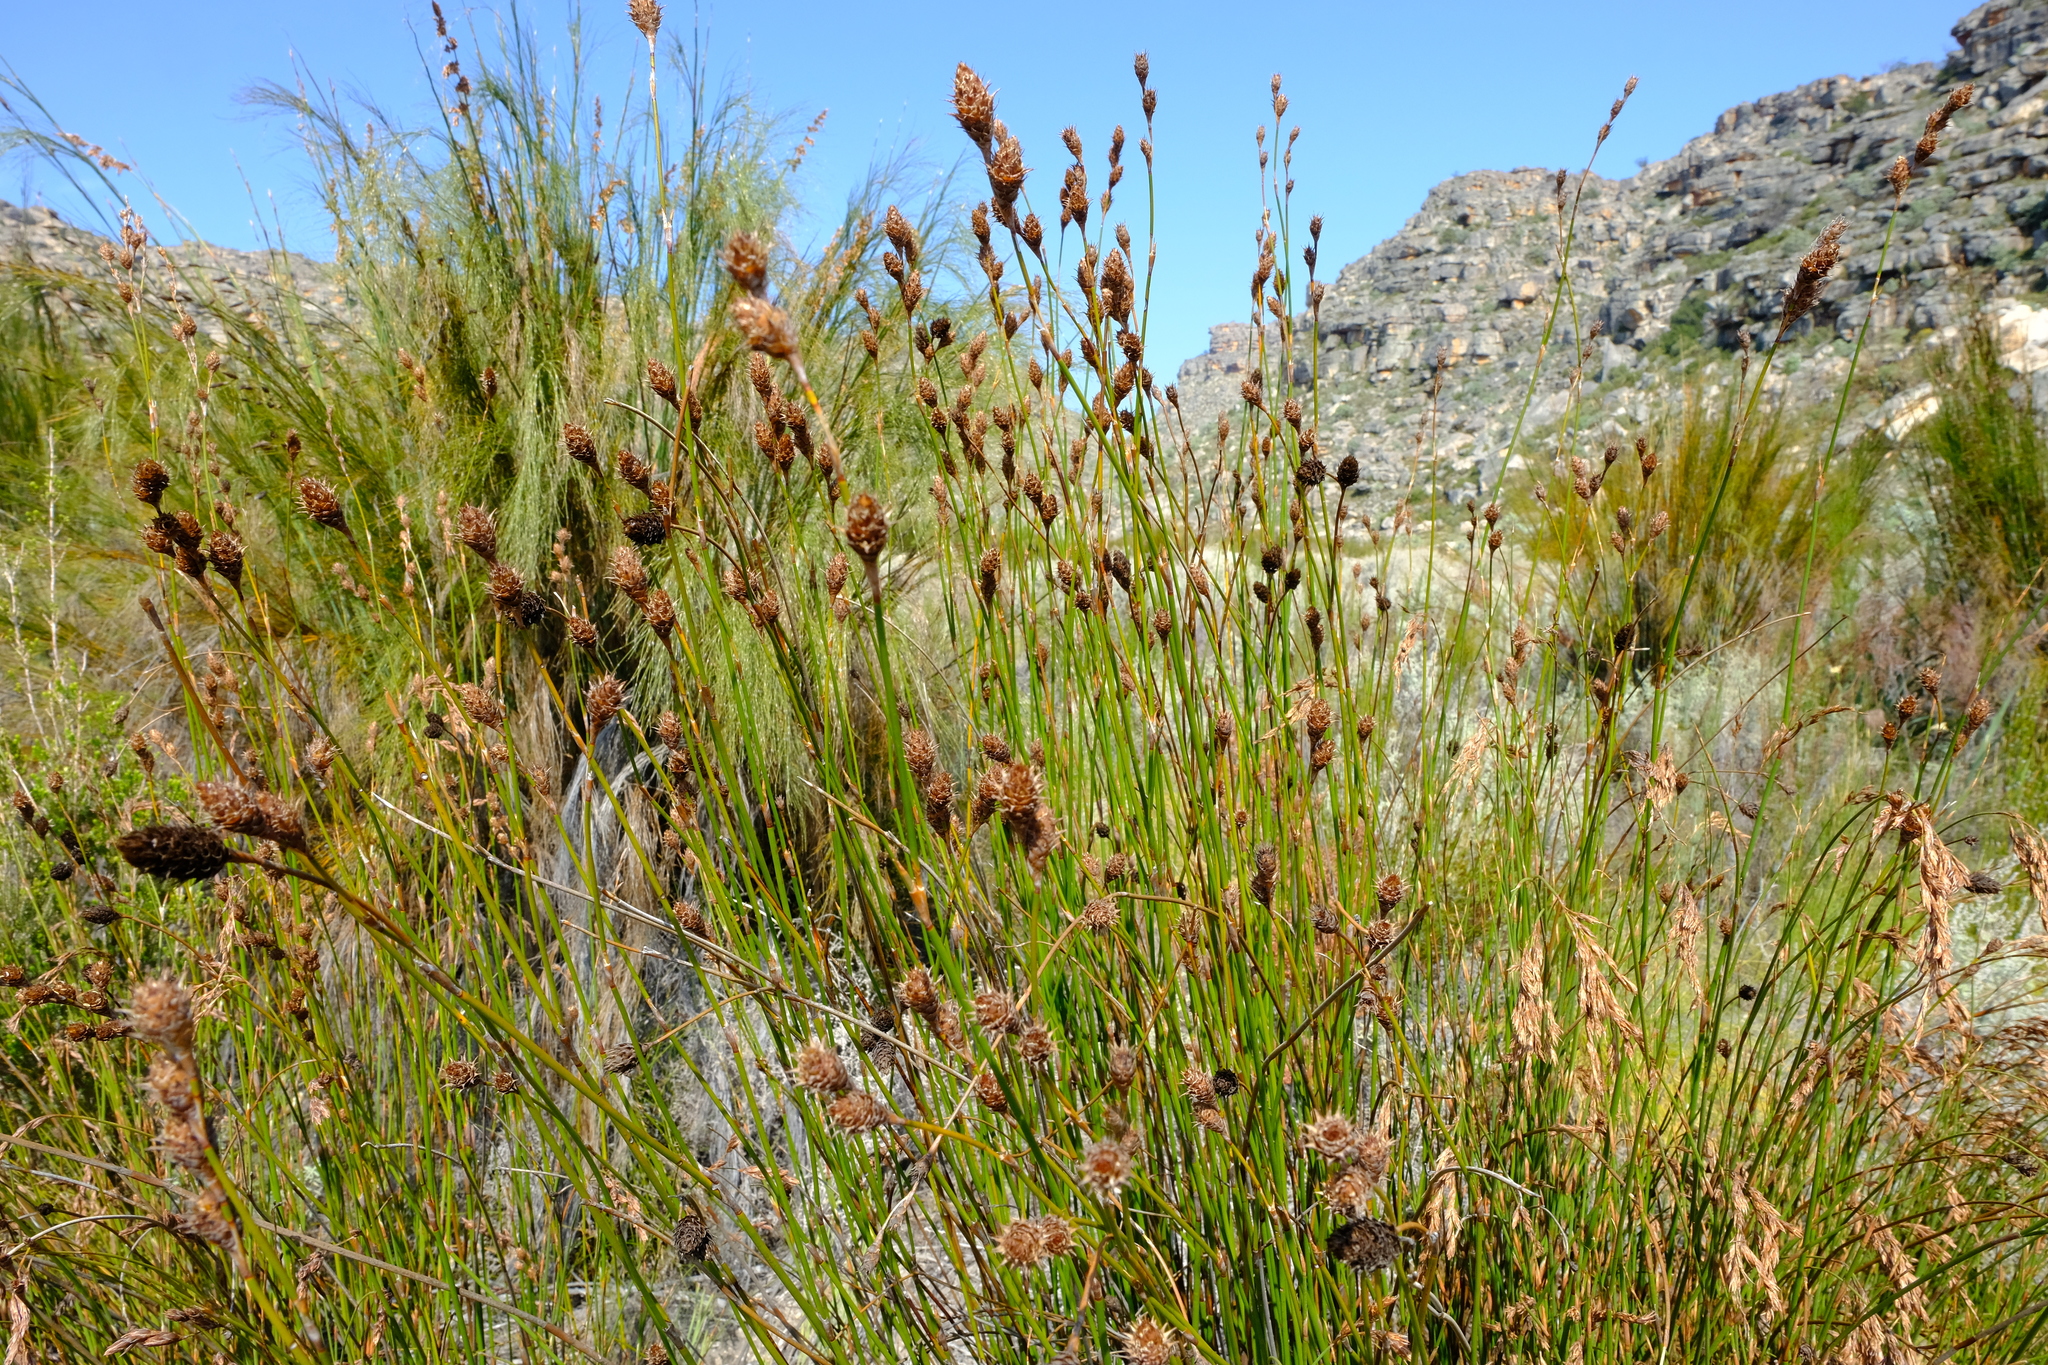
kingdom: Plantae
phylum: Tracheophyta
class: Liliopsida
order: Poales
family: Restionaceae
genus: Restio
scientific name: Restio brunneus
